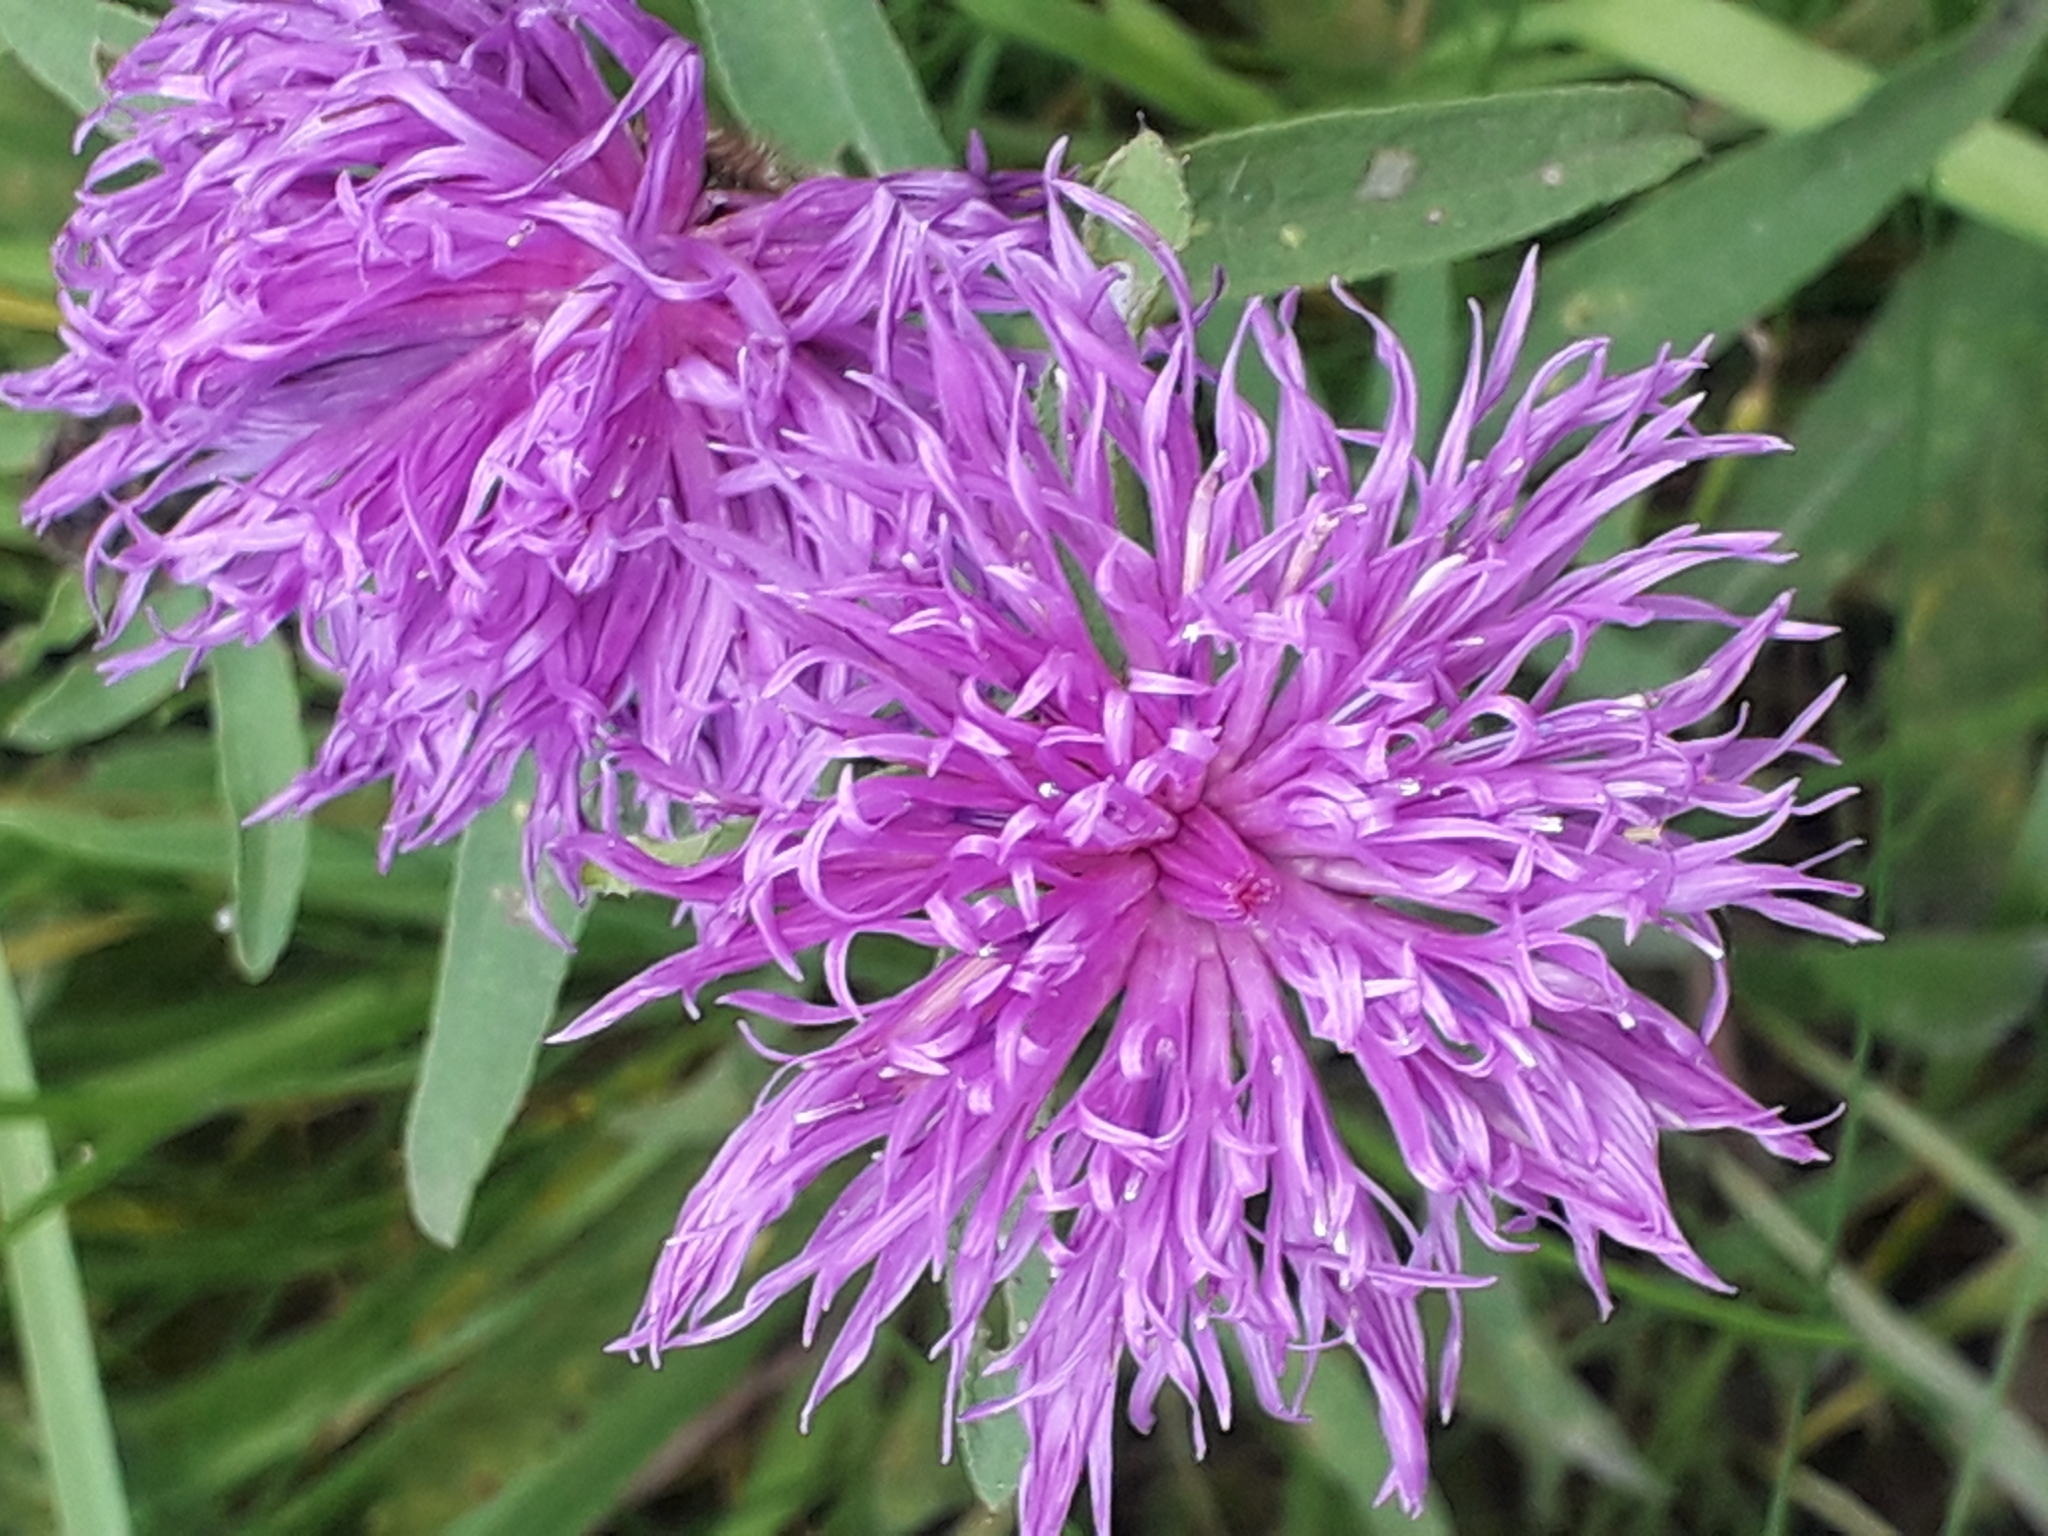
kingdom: Plantae
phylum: Tracheophyta
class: Magnoliopsida
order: Asterales
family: Asteraceae
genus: Centaurea
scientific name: Centaurea nigra
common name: Lesser knapweed
